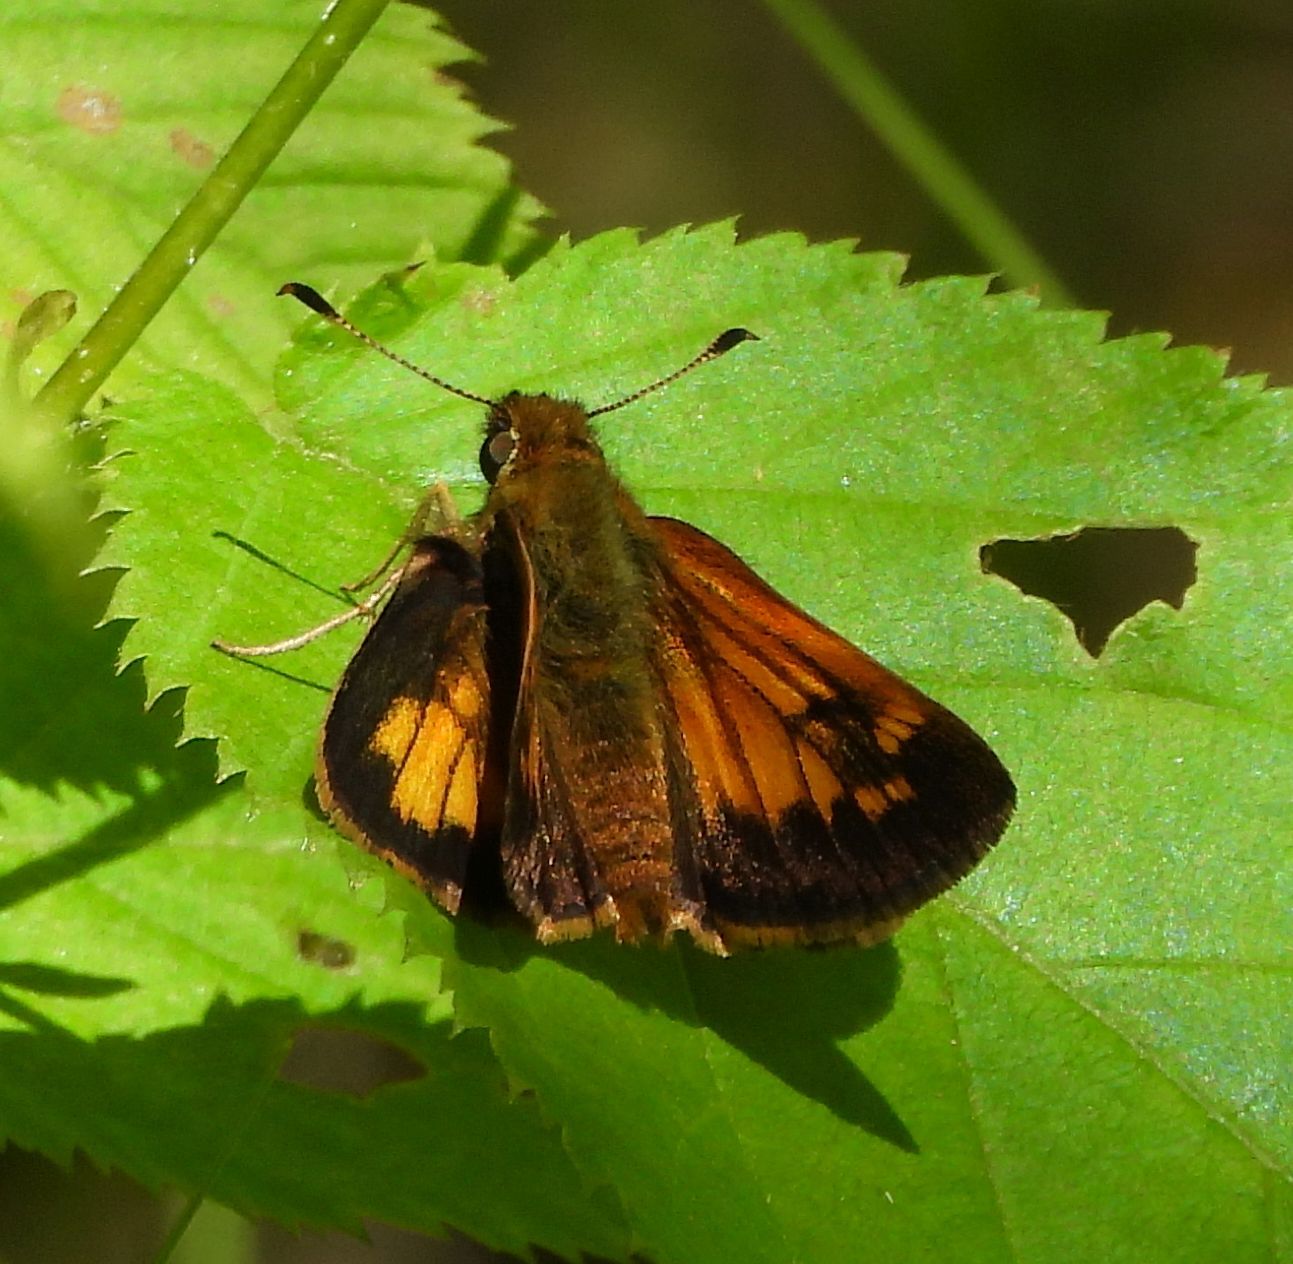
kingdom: Animalia
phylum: Arthropoda
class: Insecta
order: Lepidoptera
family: Hesperiidae
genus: Lon
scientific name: Lon hobomok
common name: Hobomok skipper
